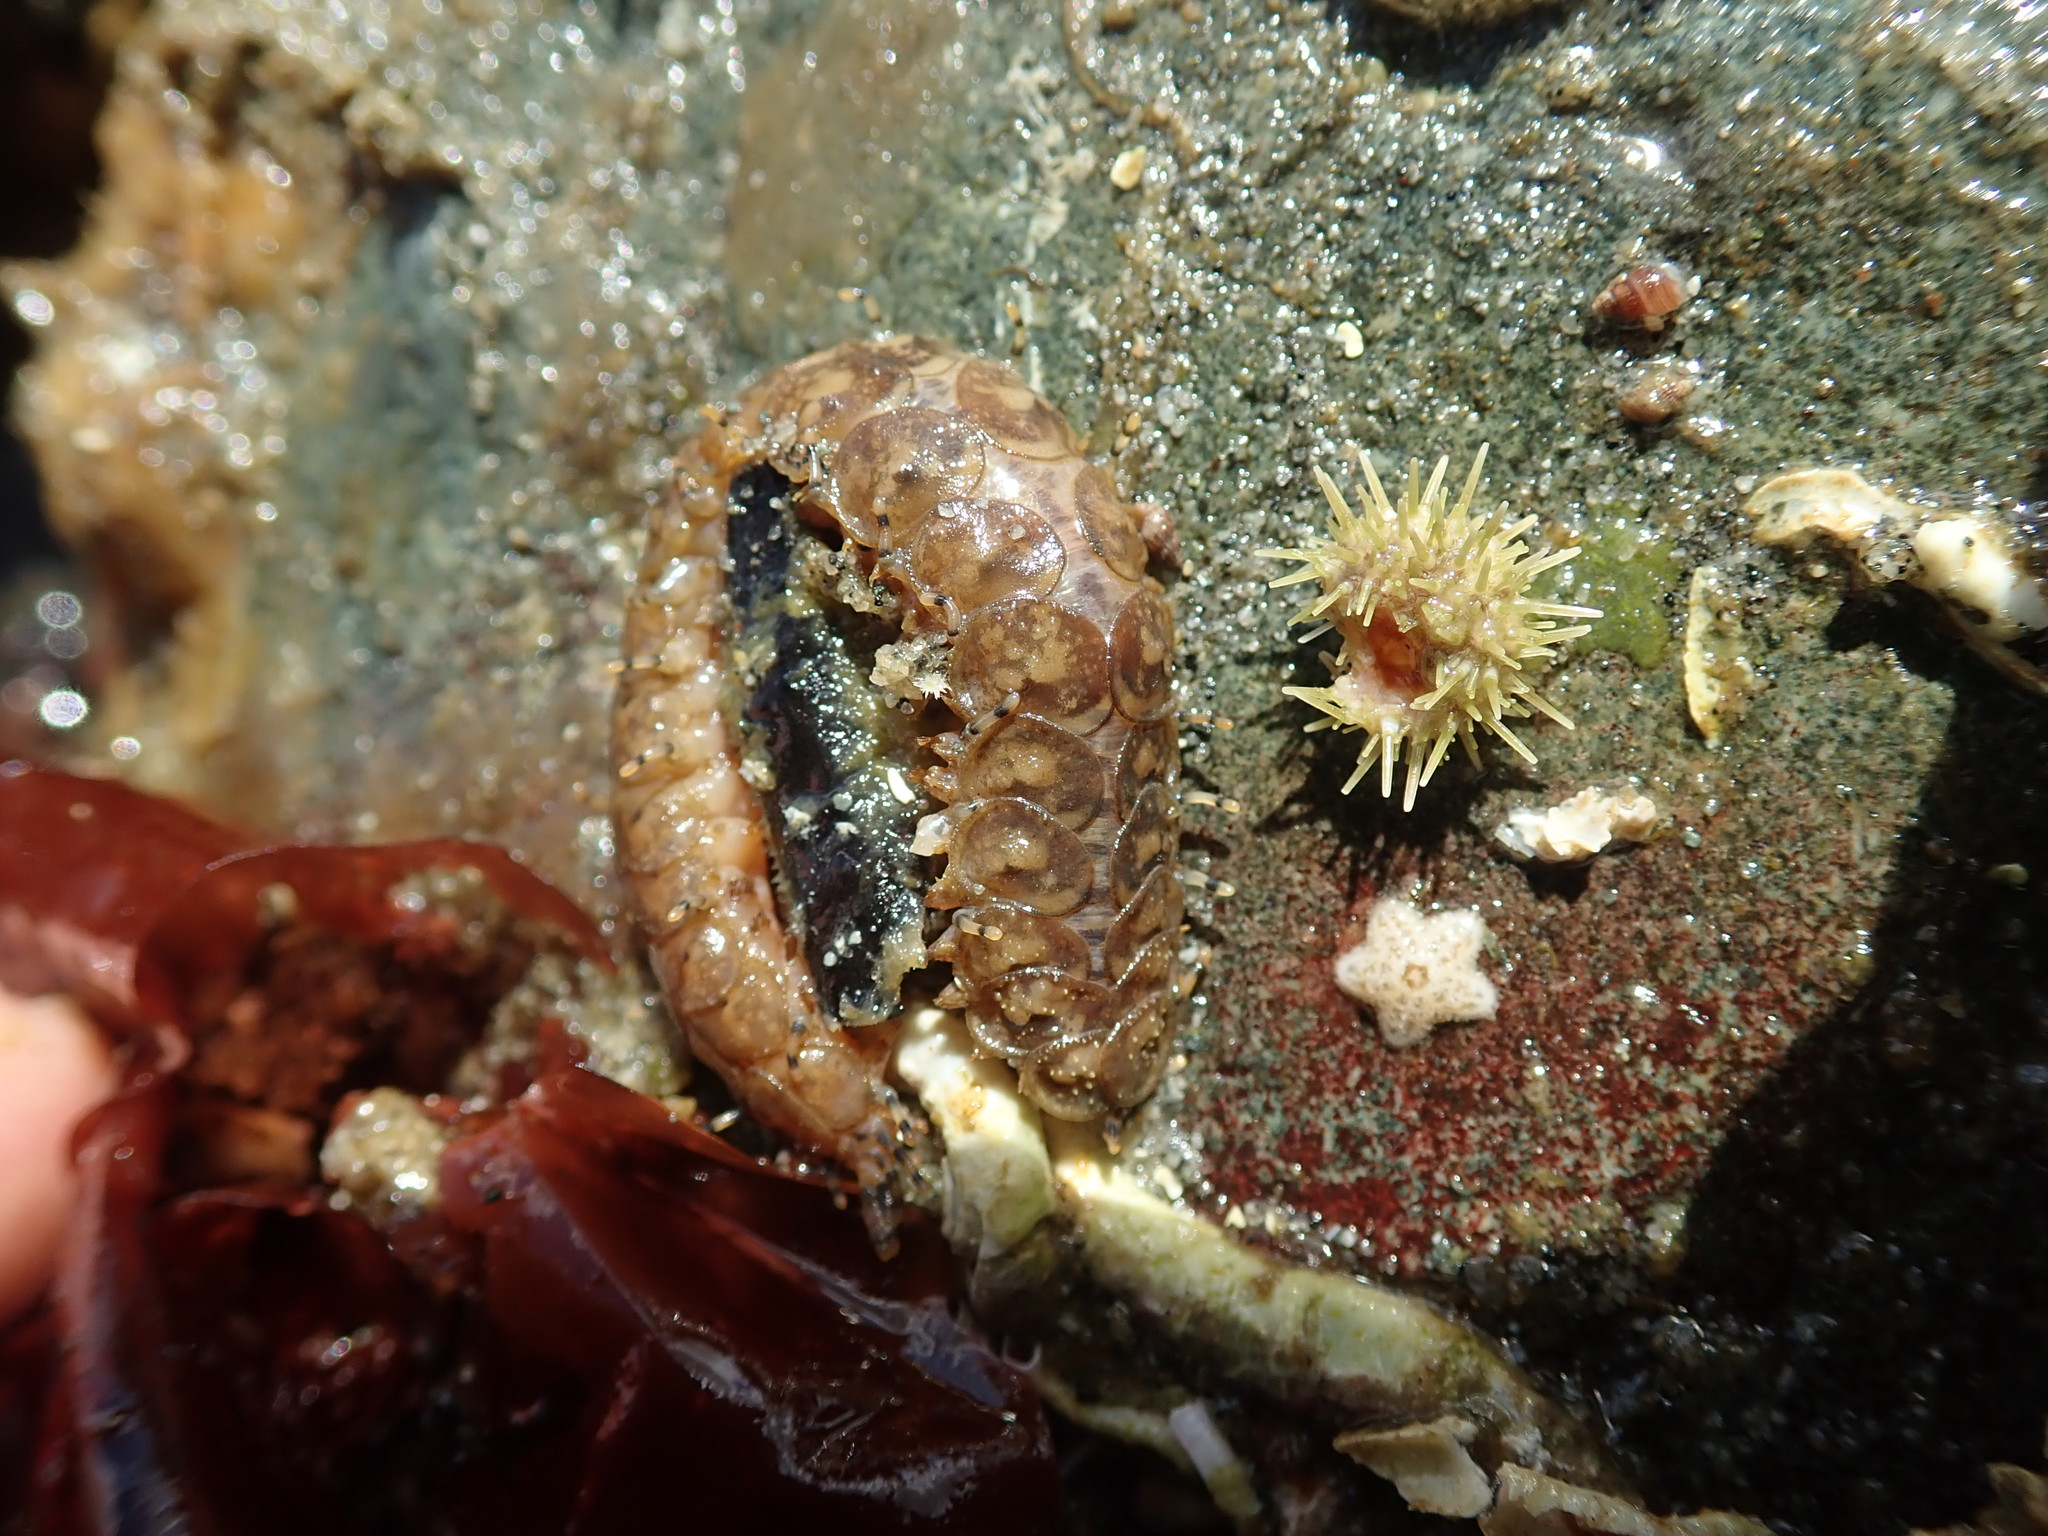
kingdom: Animalia
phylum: Annelida
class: Polychaeta
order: Phyllodocida
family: Polynoidae
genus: Halosydna
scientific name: Halosydna brevisetosa
